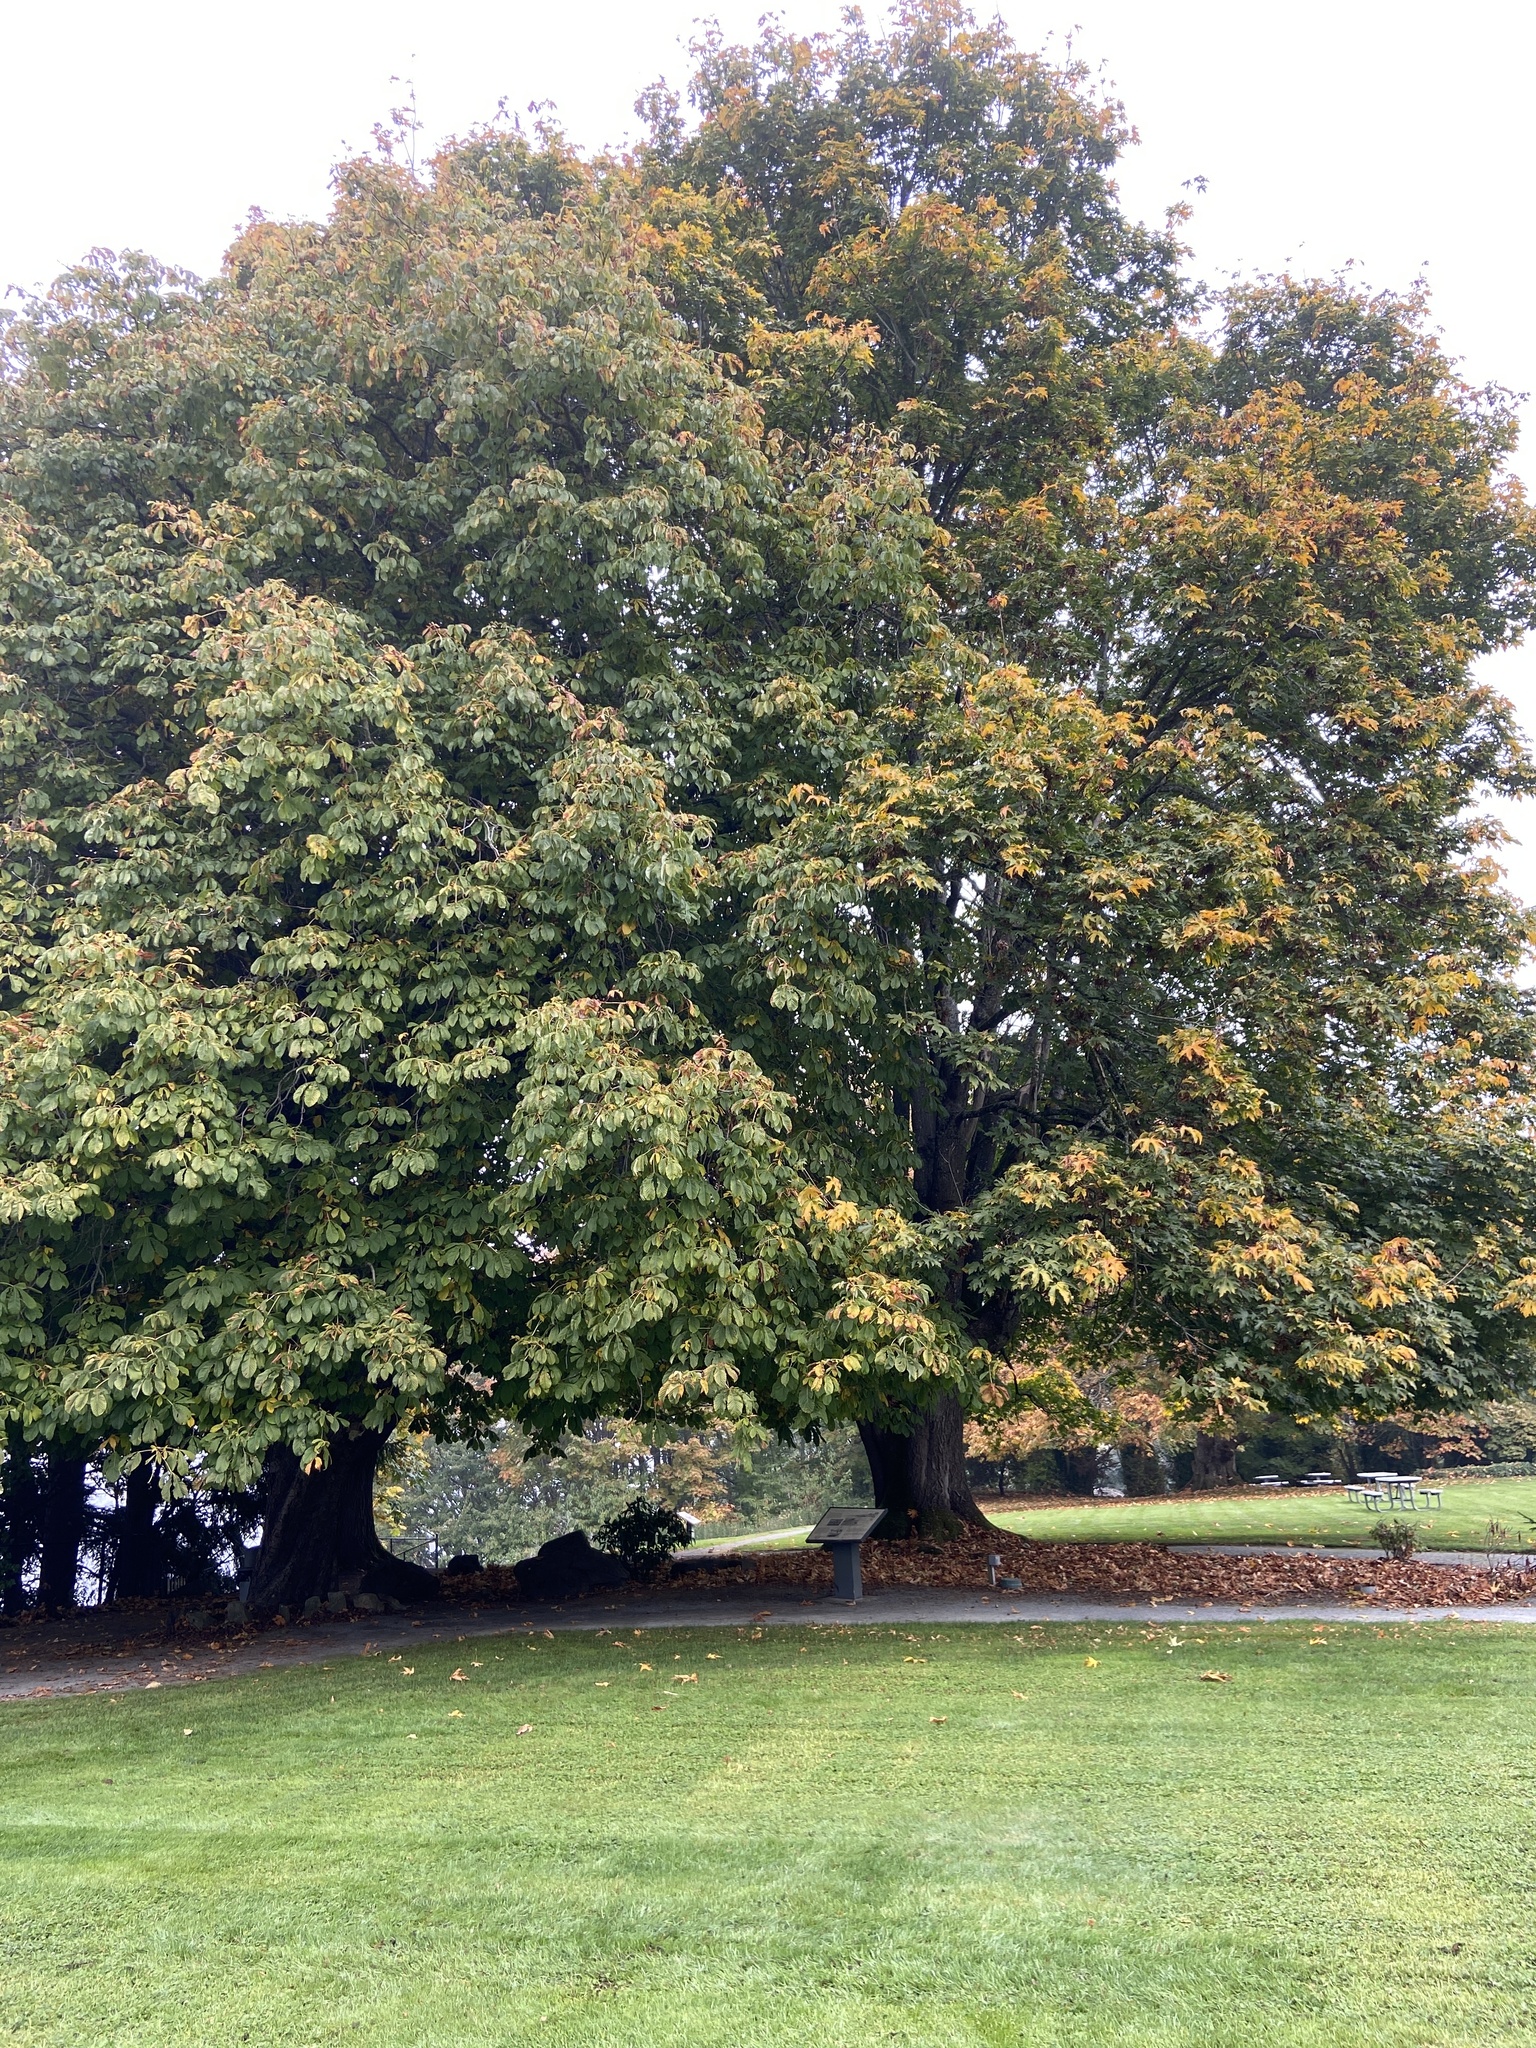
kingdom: Plantae
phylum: Tracheophyta
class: Magnoliopsida
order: Sapindales
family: Sapindaceae
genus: Aesculus
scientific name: Aesculus hippocastanum
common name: Horse-chestnut
